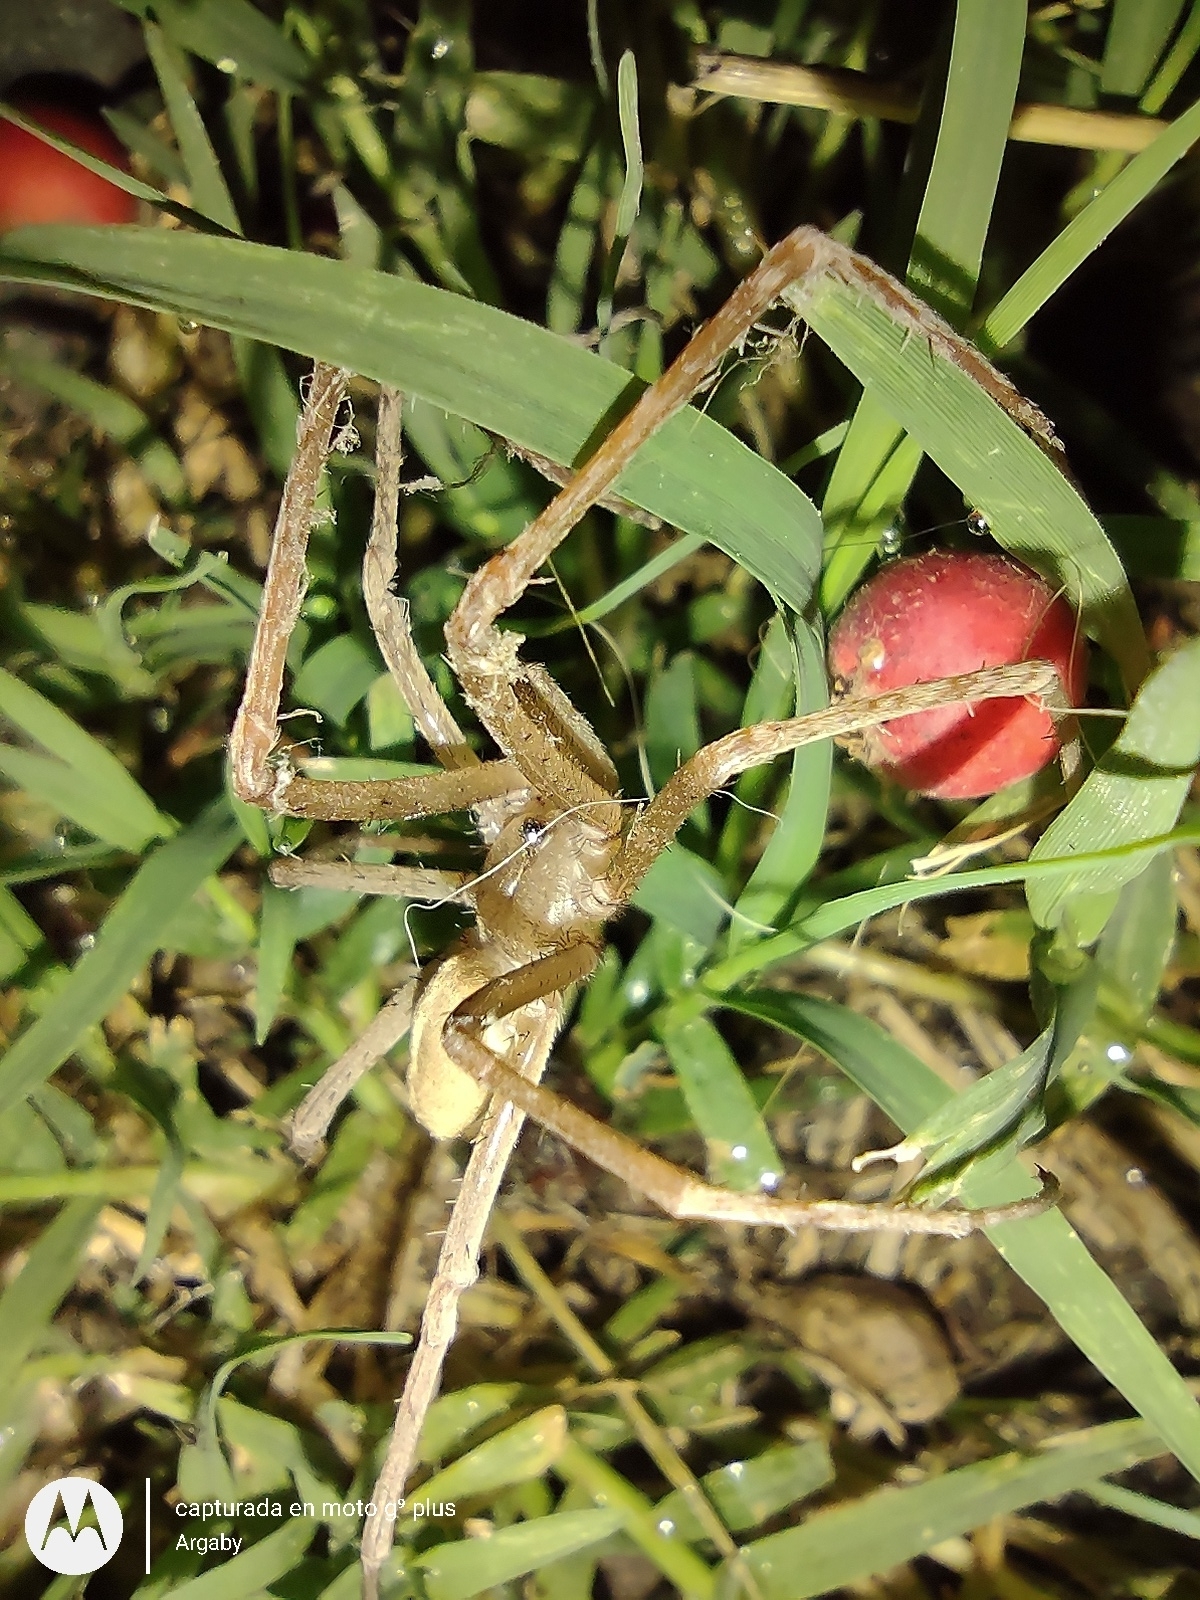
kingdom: Animalia
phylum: Arthropoda
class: Arachnida
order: Araneae
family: Filistatidae
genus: Kukulcania
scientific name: Kukulcania hibernalis
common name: Crevice weaver
